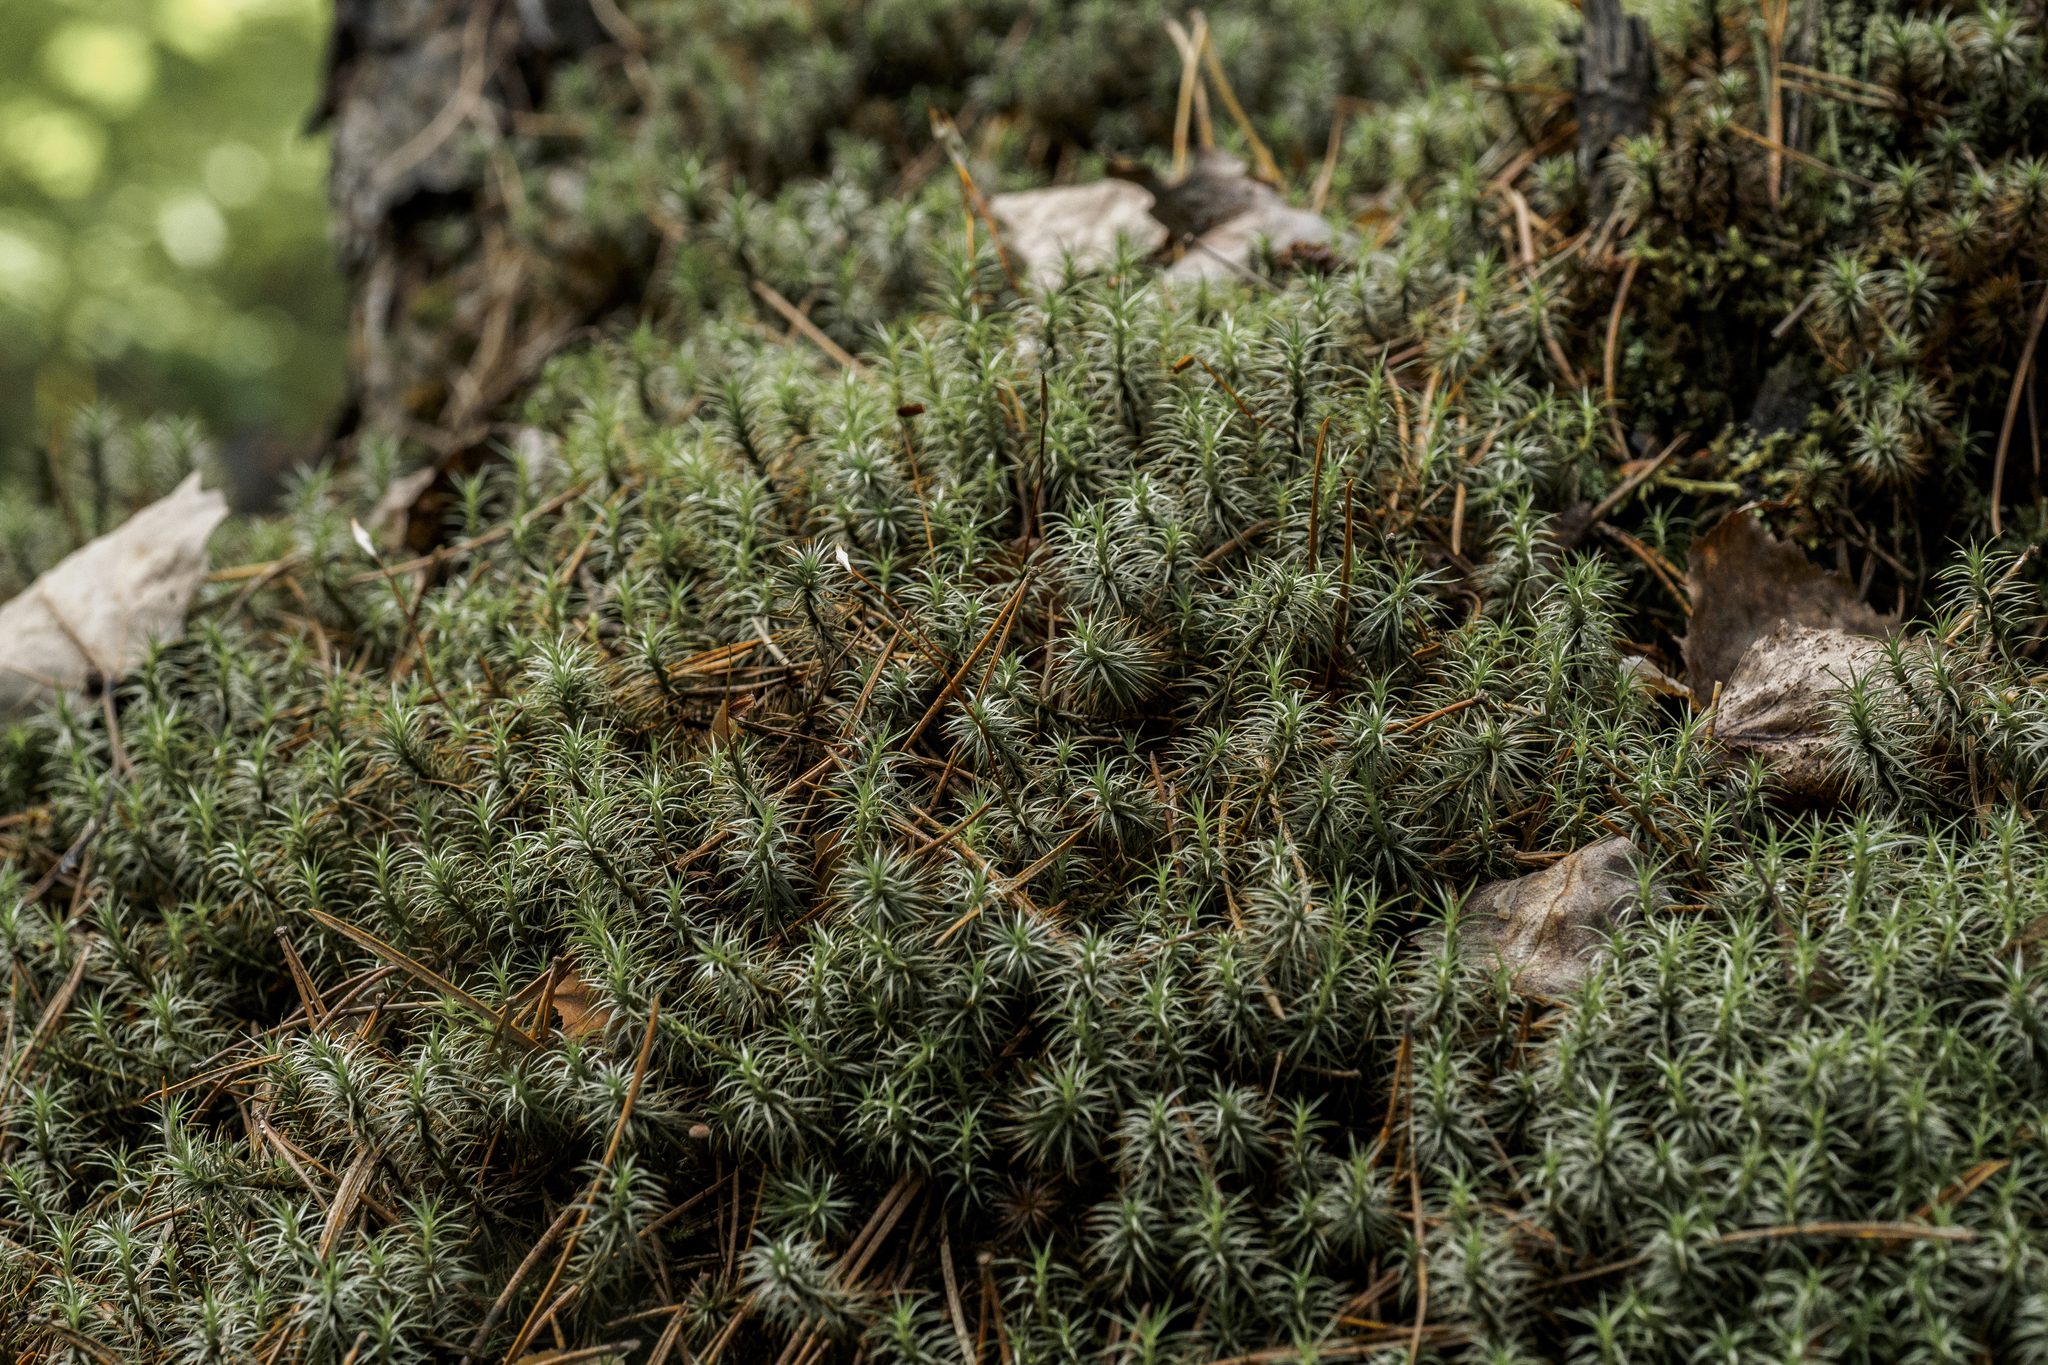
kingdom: Plantae
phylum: Bryophyta
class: Polytrichopsida
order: Polytrichales
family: Polytrichaceae
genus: Polytrichum
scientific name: Polytrichum juniperinum
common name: Juniper haircap moss
